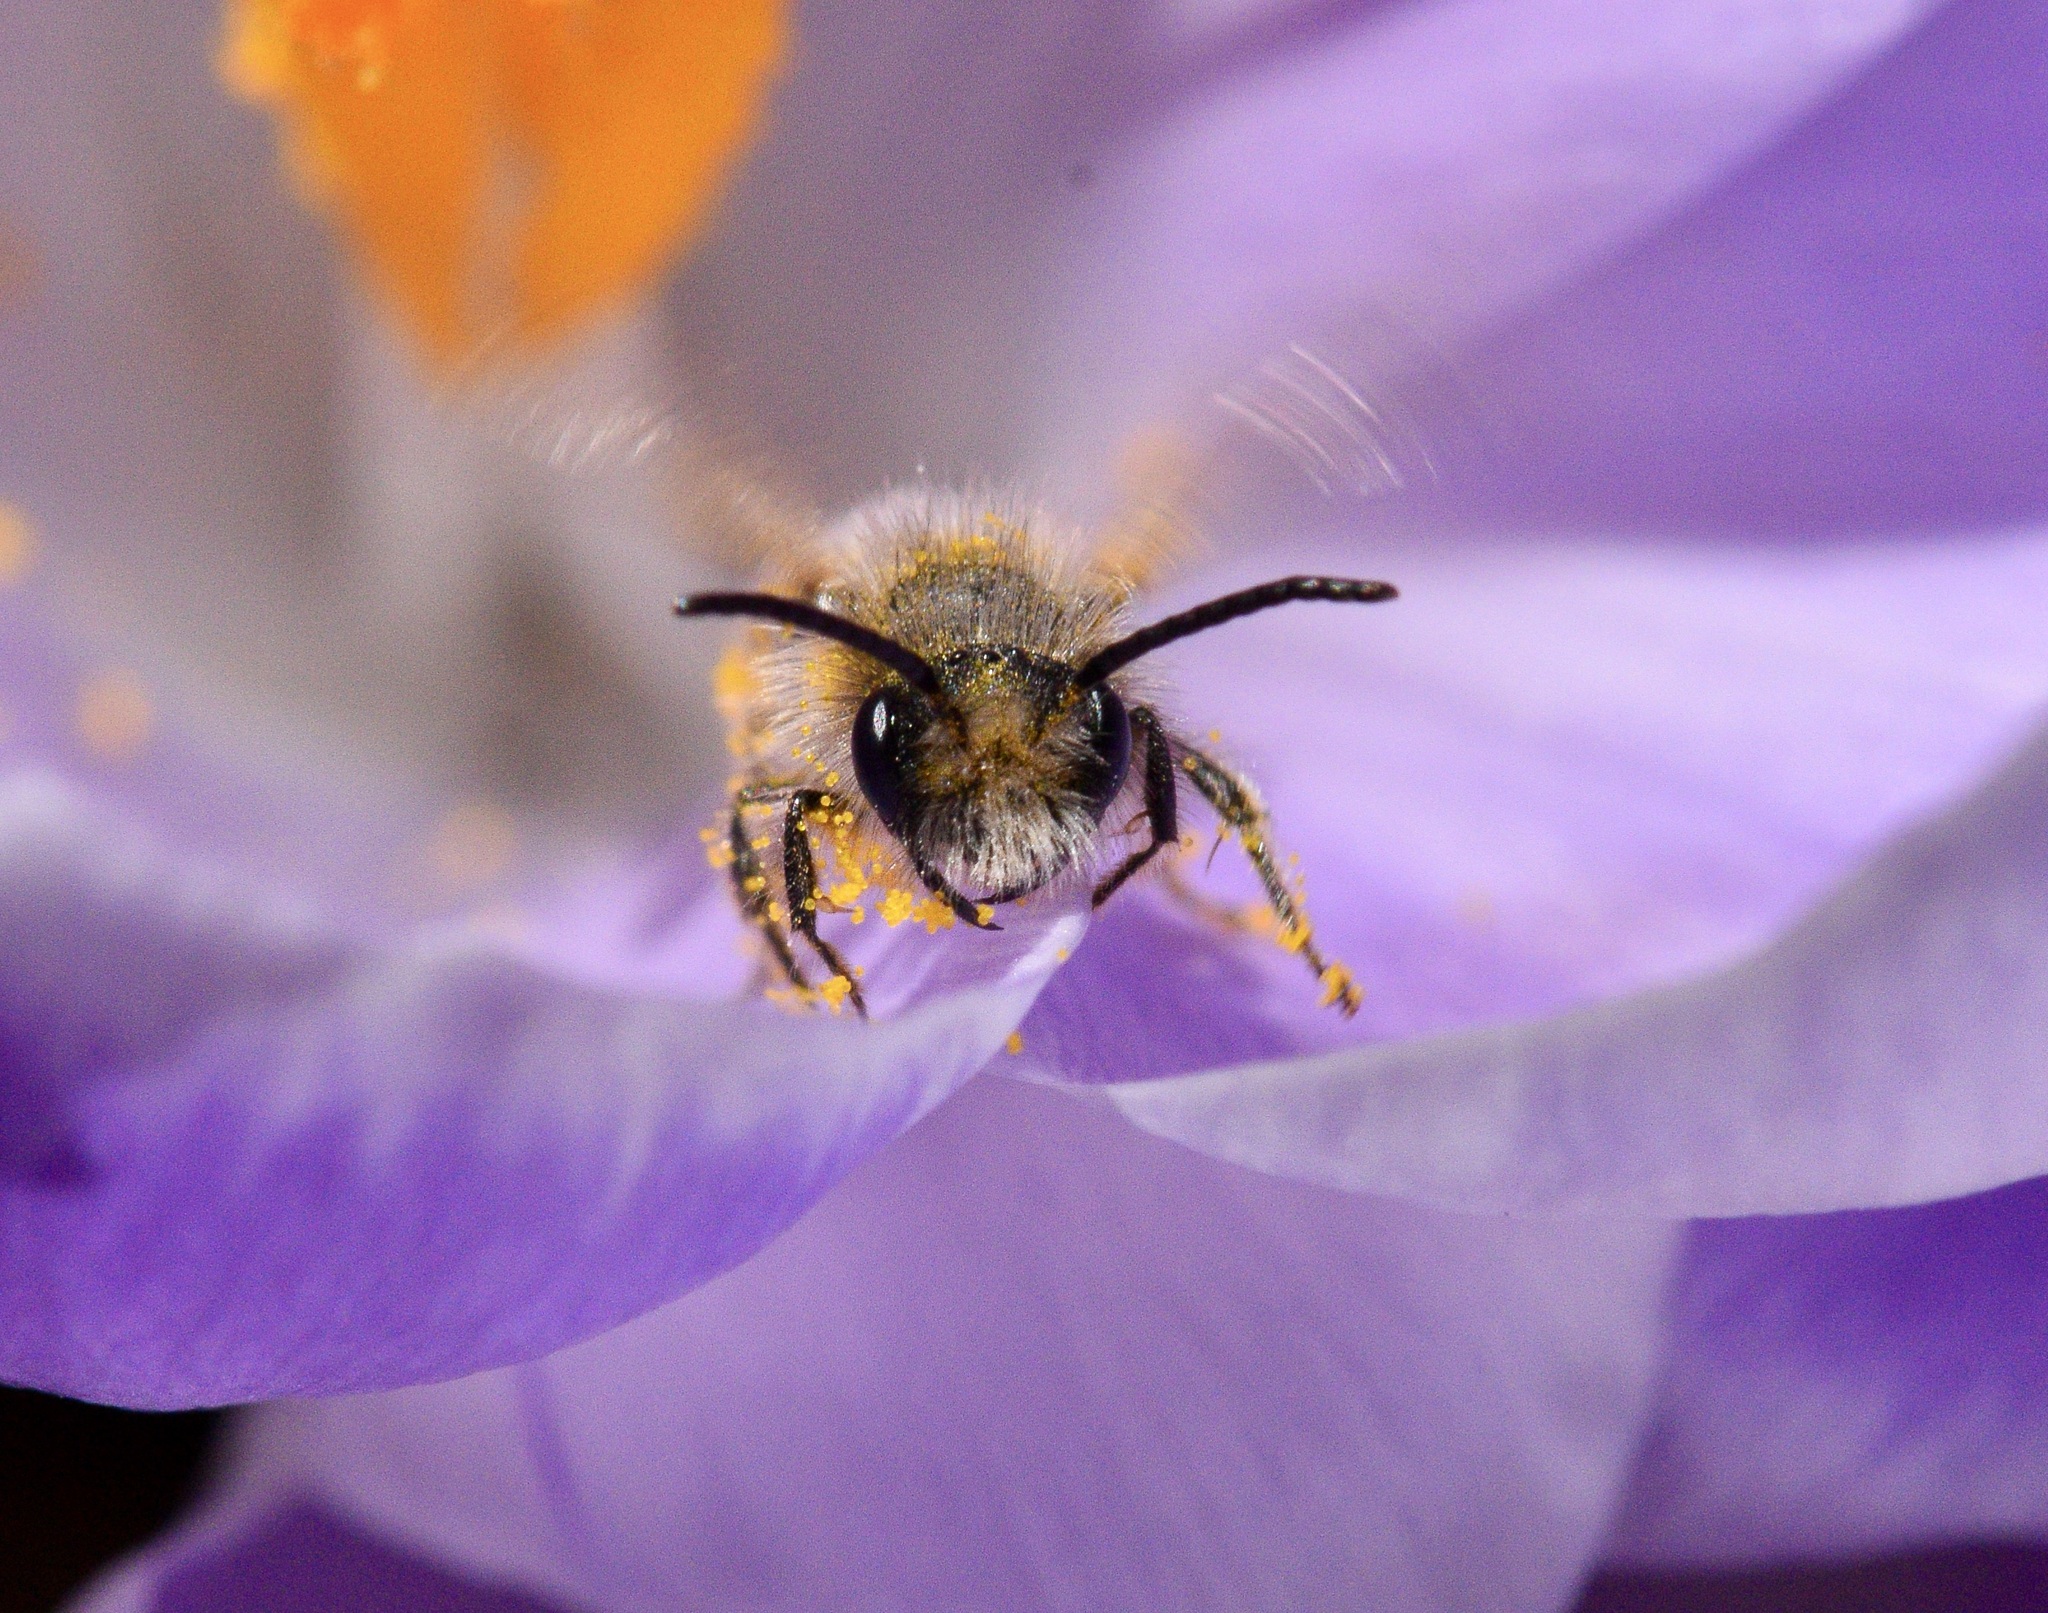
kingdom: Animalia
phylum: Arthropoda
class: Insecta
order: Hymenoptera
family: Andrenidae
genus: Andrena
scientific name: Andrena frigida
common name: Frigid mining bee
